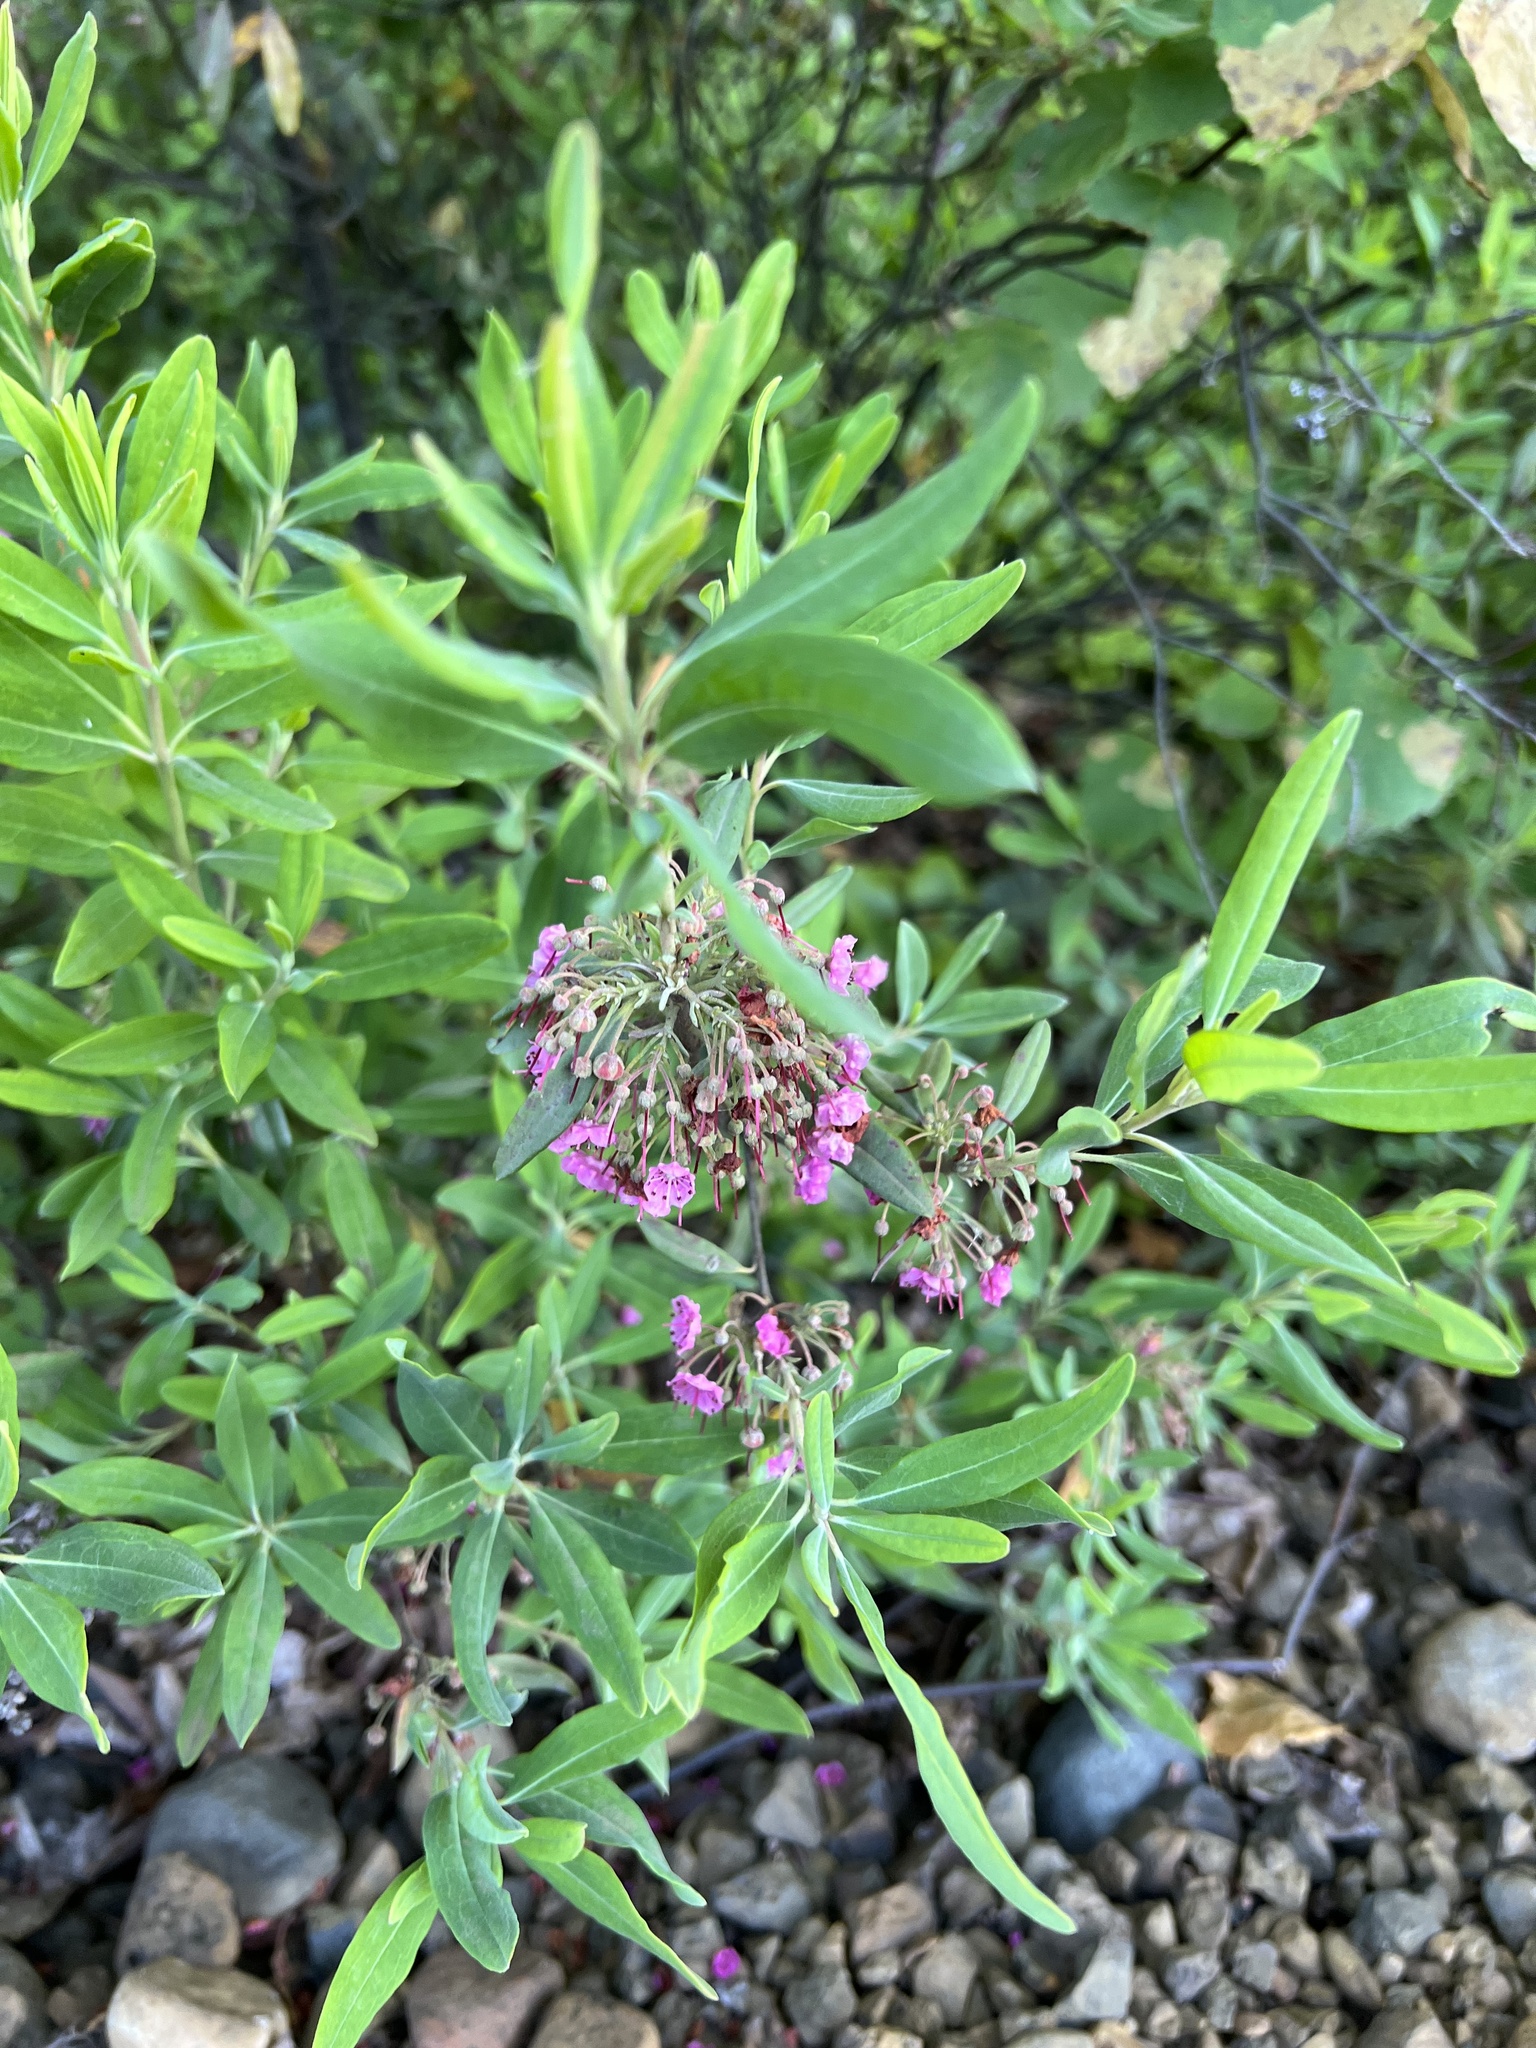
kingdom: Plantae
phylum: Tracheophyta
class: Magnoliopsida
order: Ericales
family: Ericaceae
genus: Kalmia
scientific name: Kalmia angustifolia
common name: Sheep-laurel
